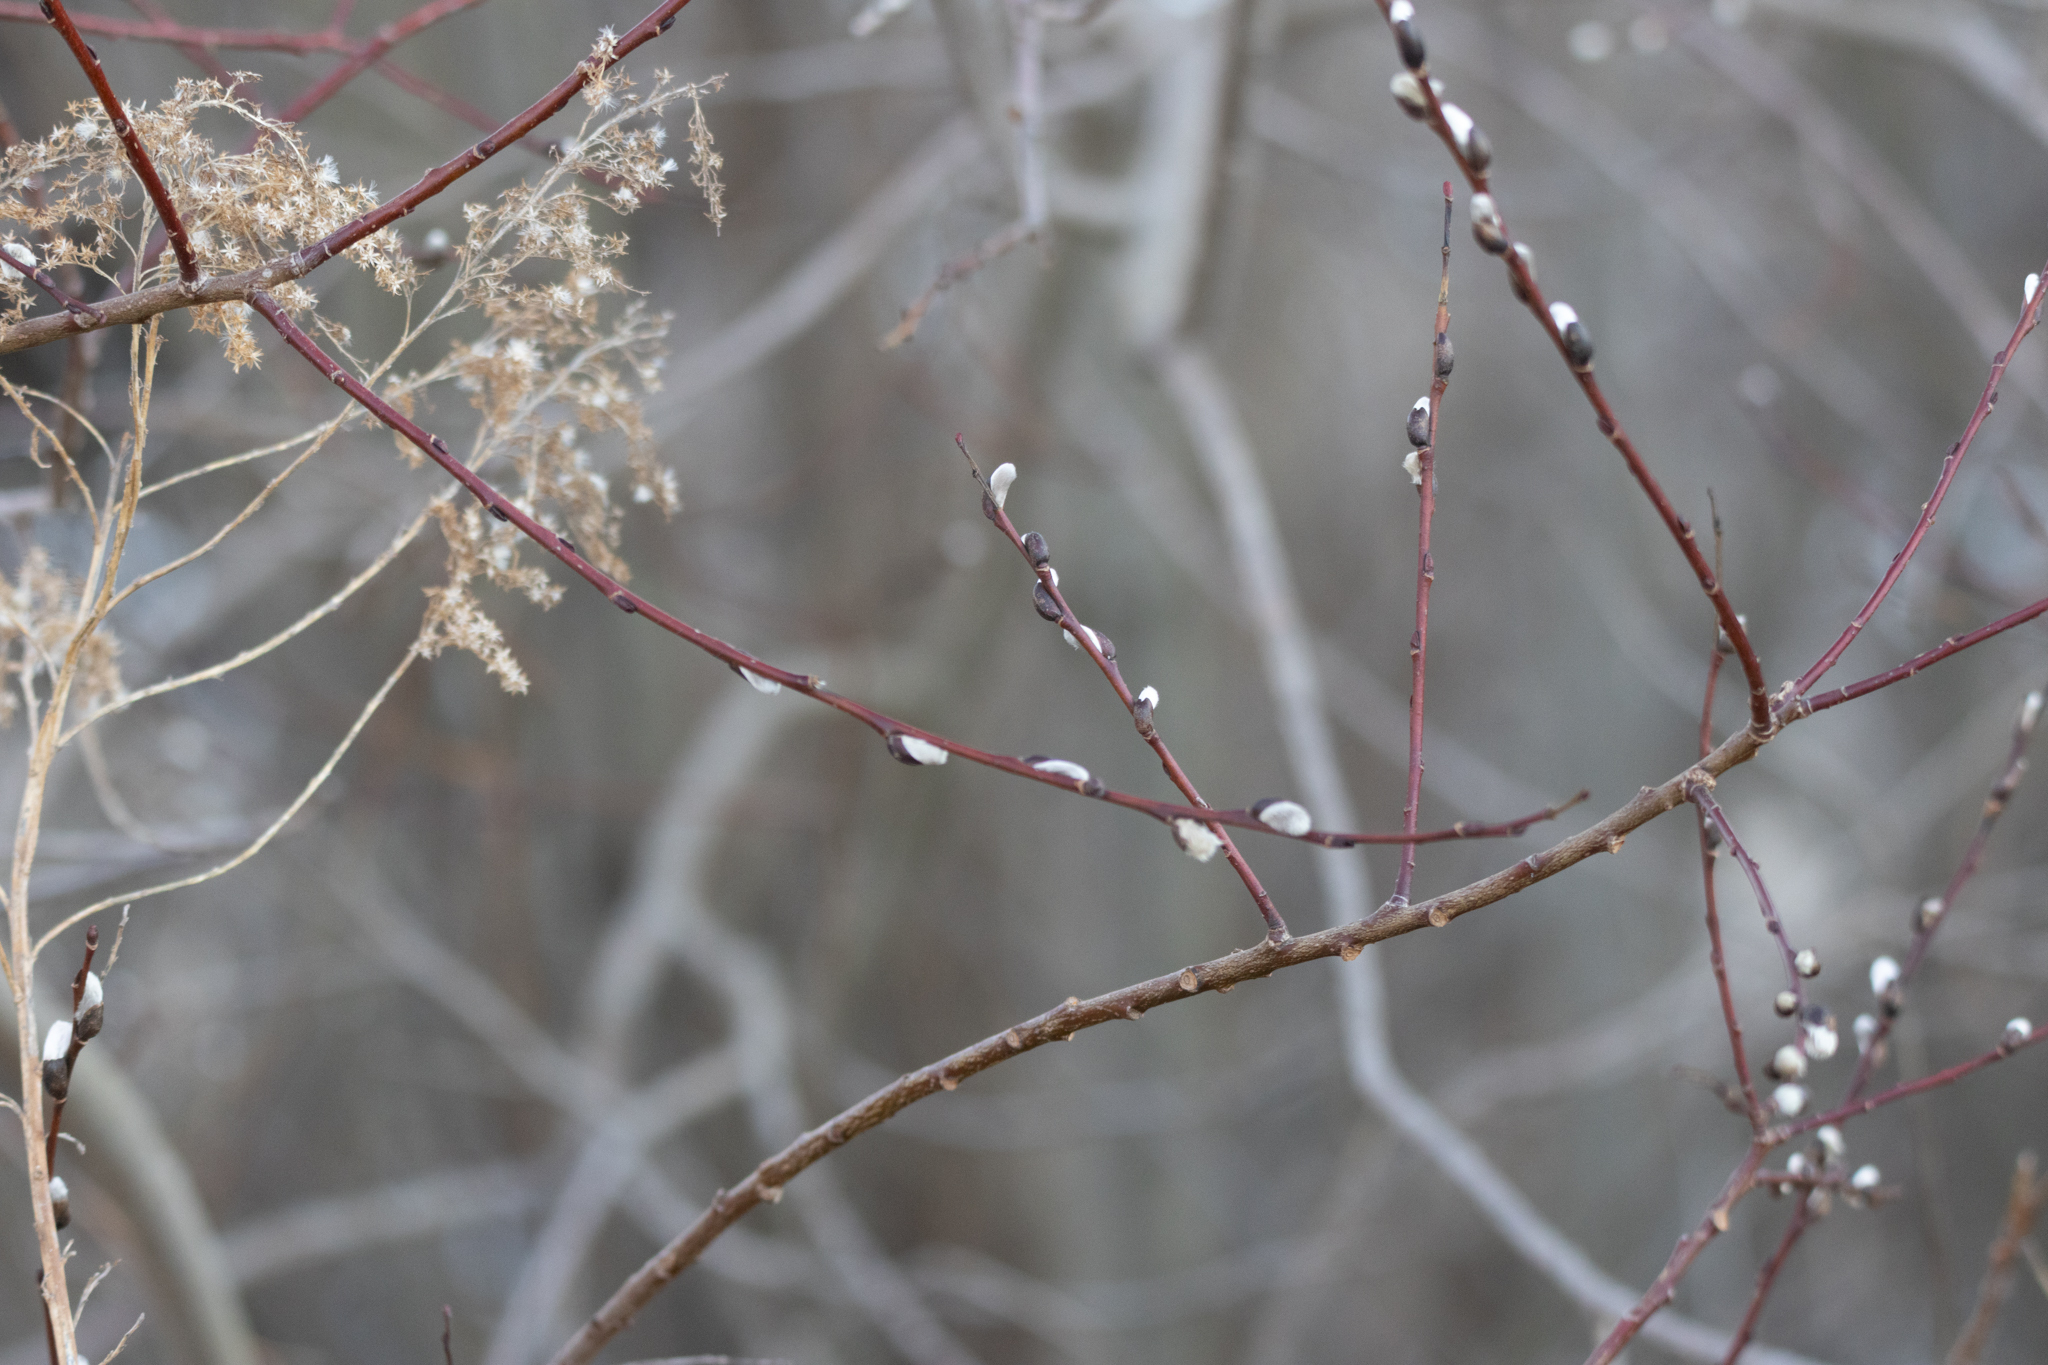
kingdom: Plantae
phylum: Tracheophyta
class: Magnoliopsida
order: Malpighiales
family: Salicaceae
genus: Salix
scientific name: Salix discolor
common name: Glaucous willow
